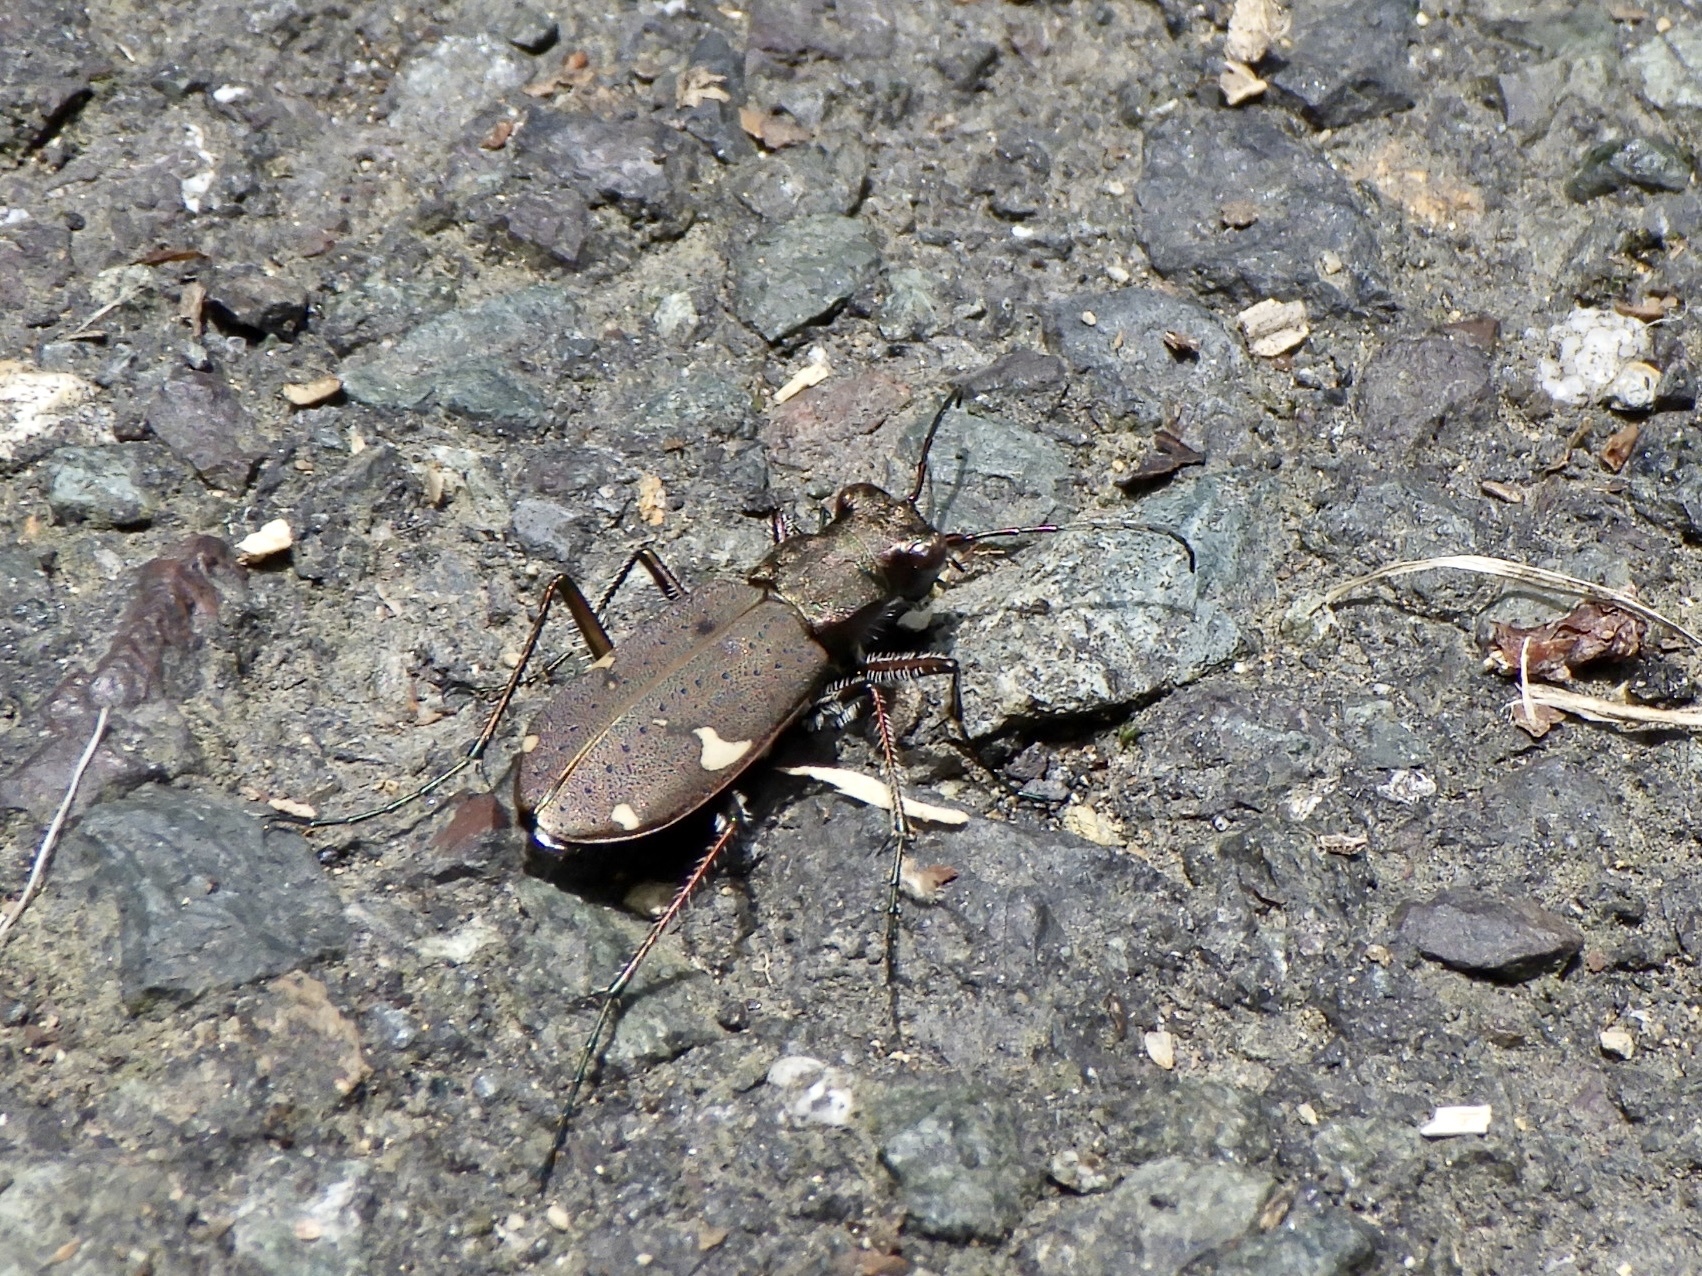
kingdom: Animalia
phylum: Arthropoda
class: Insecta
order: Coleoptera
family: Carabidae
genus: Cicindela
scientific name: Cicindela japana
